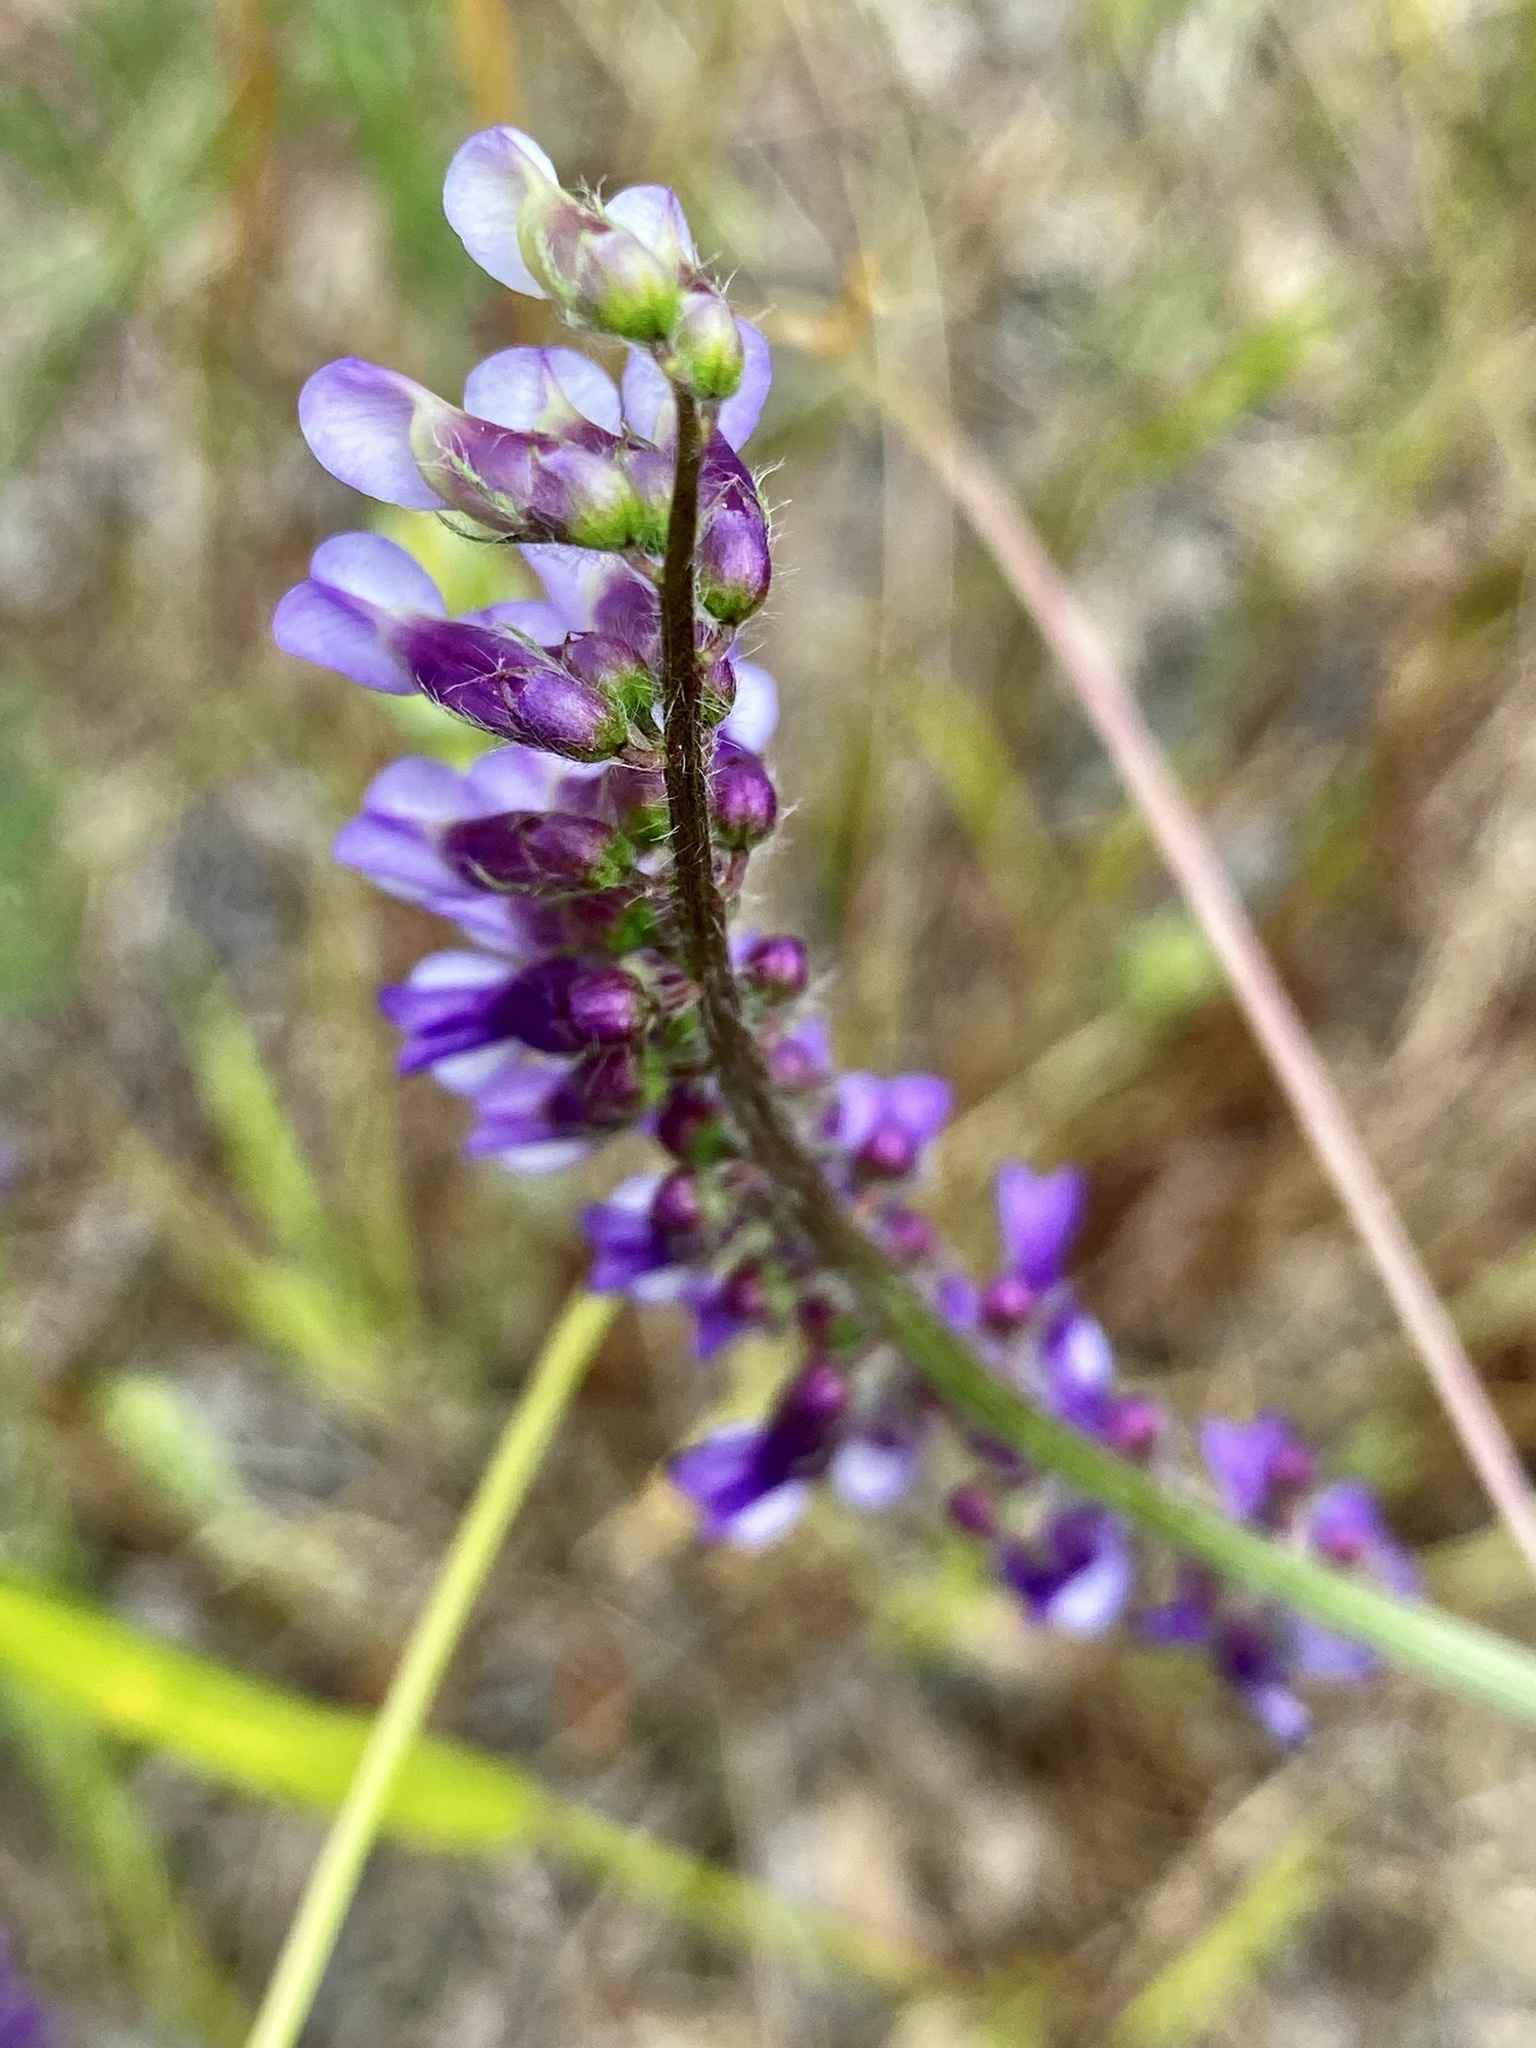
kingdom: Plantae
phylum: Tracheophyta
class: Magnoliopsida
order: Fabales
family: Fabaceae
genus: Vicia
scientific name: Vicia cracca
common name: Bird vetch
